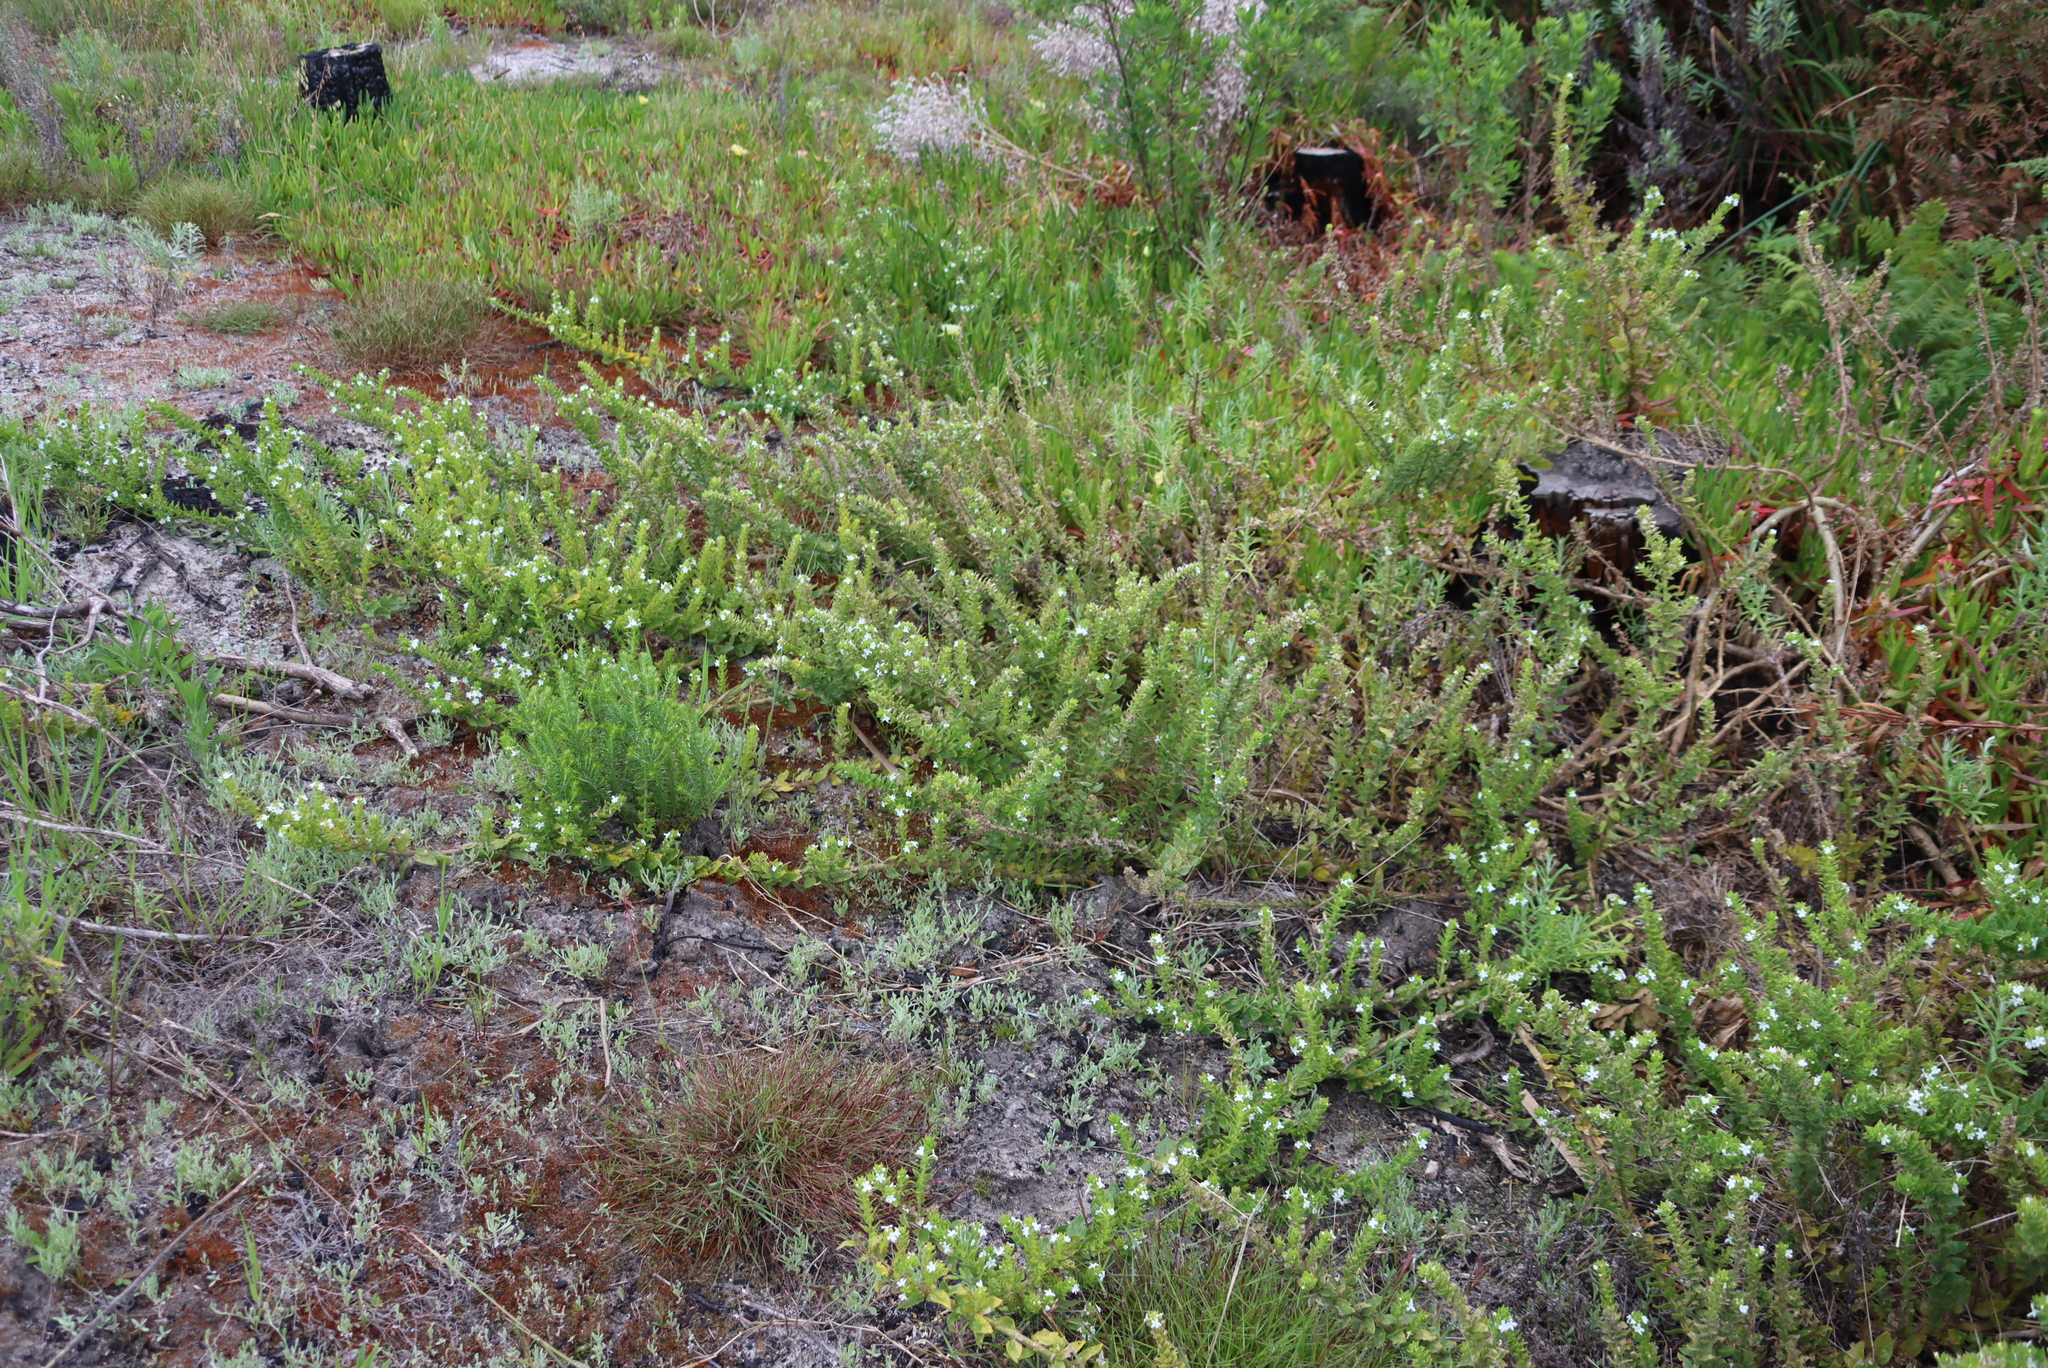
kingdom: Plantae
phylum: Tracheophyta
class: Magnoliopsida
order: Lamiales
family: Scrophulariaceae
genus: Oftia
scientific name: Oftia africana
